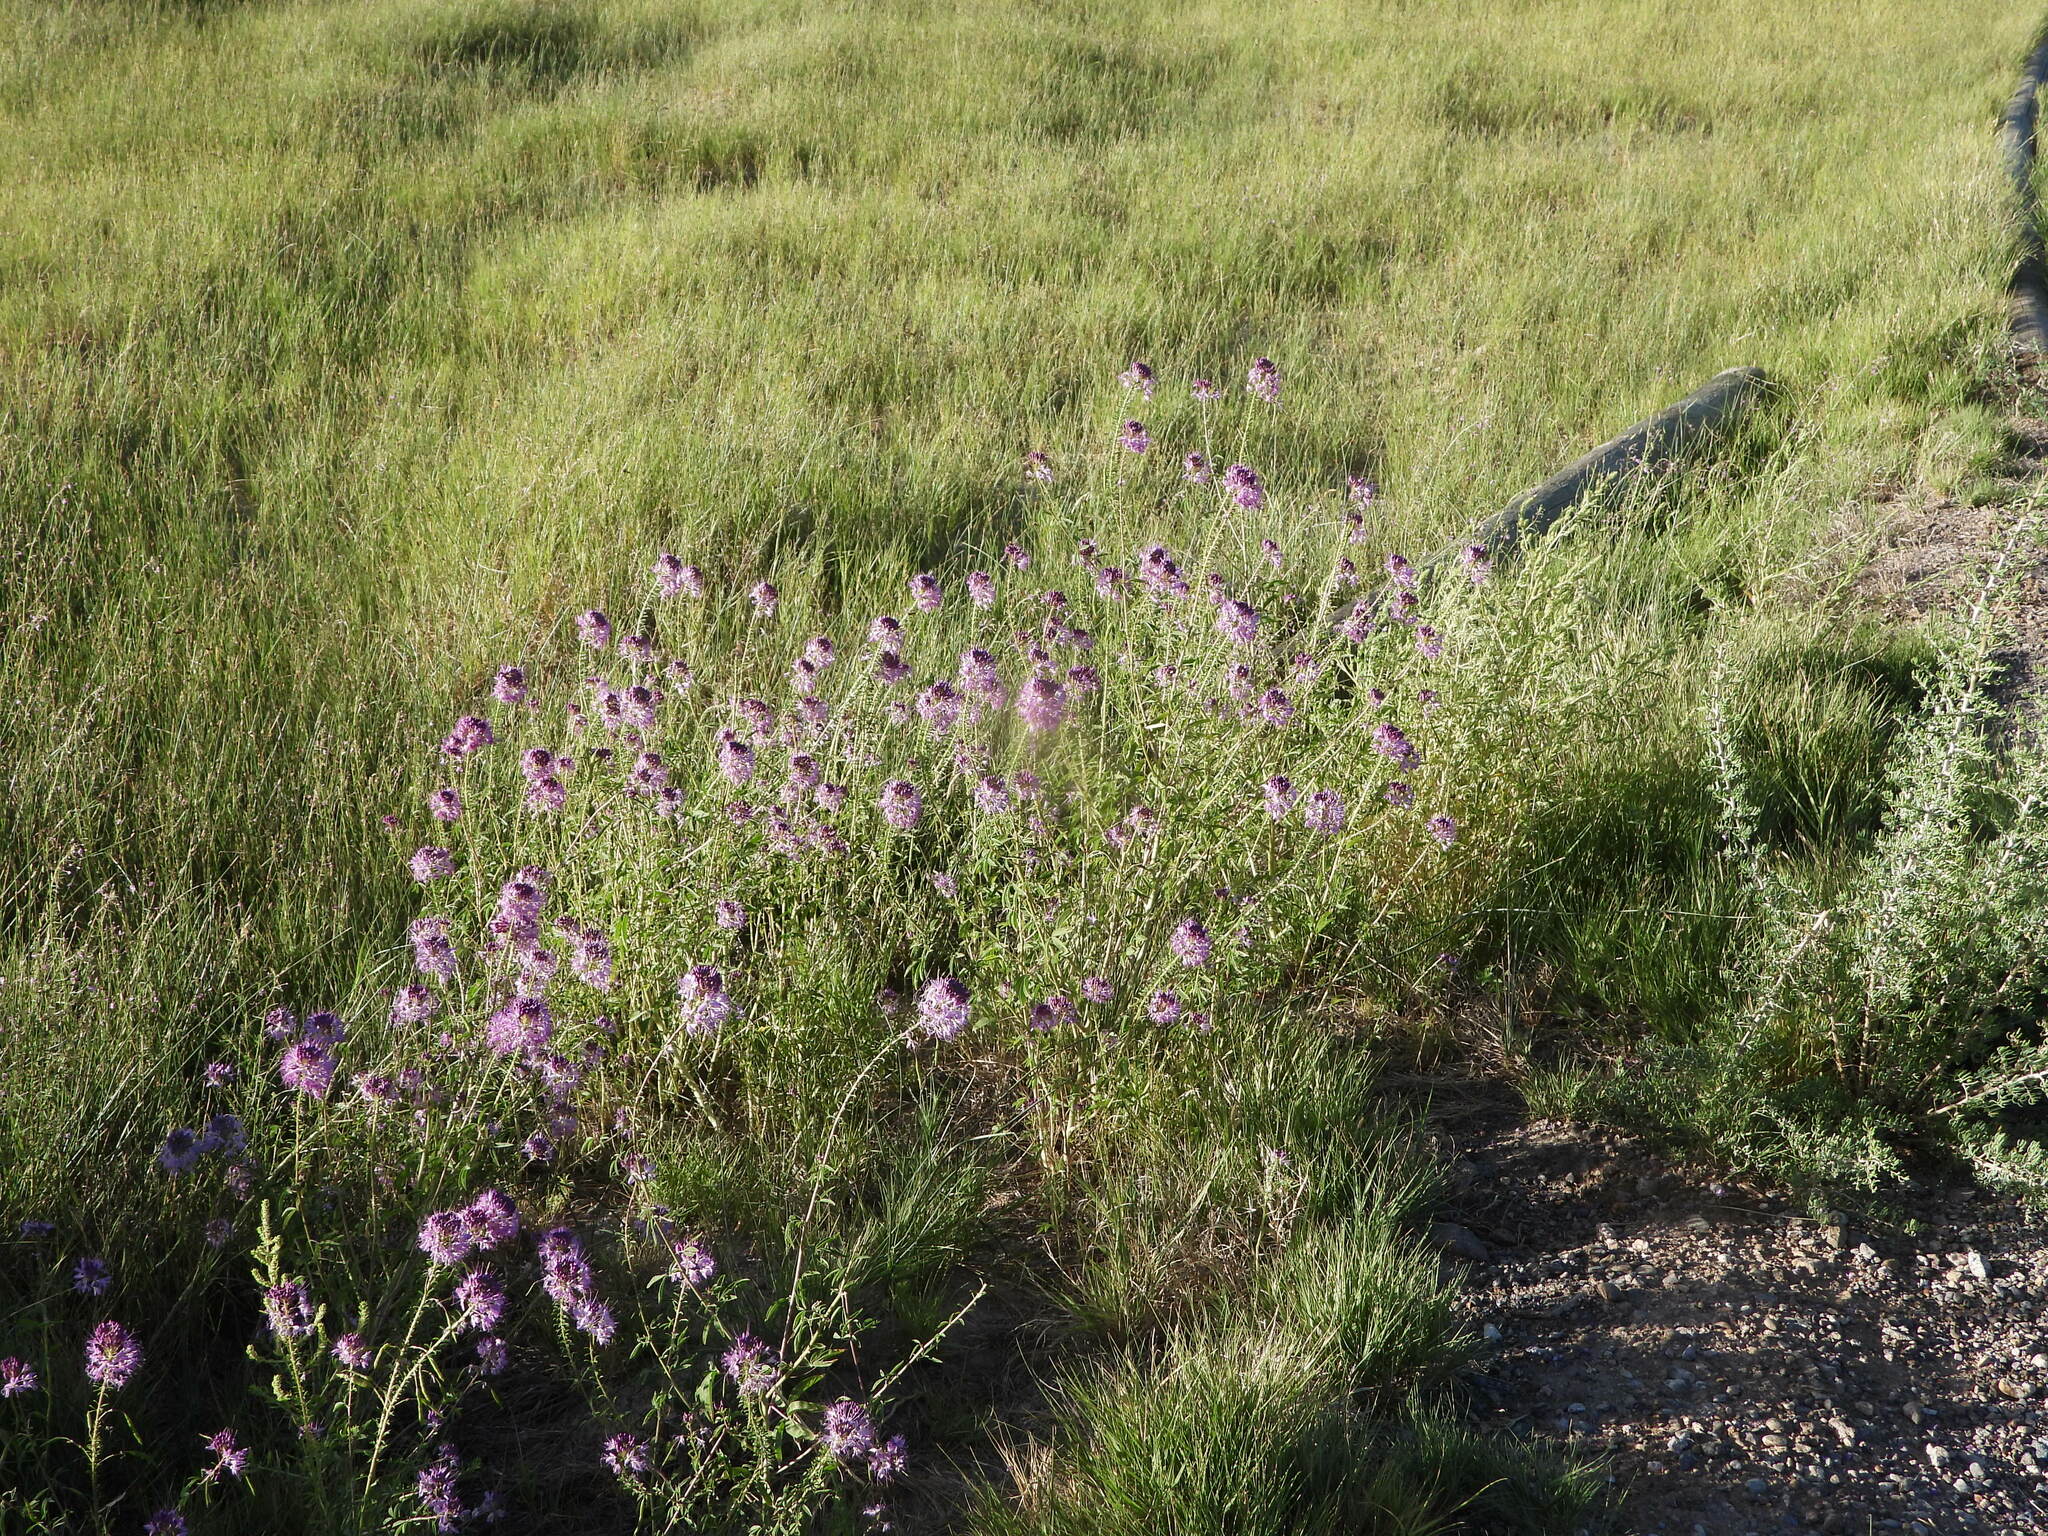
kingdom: Plantae
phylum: Tracheophyta
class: Magnoliopsida
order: Brassicales
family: Cleomaceae
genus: Cleomella
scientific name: Cleomella serrulata
